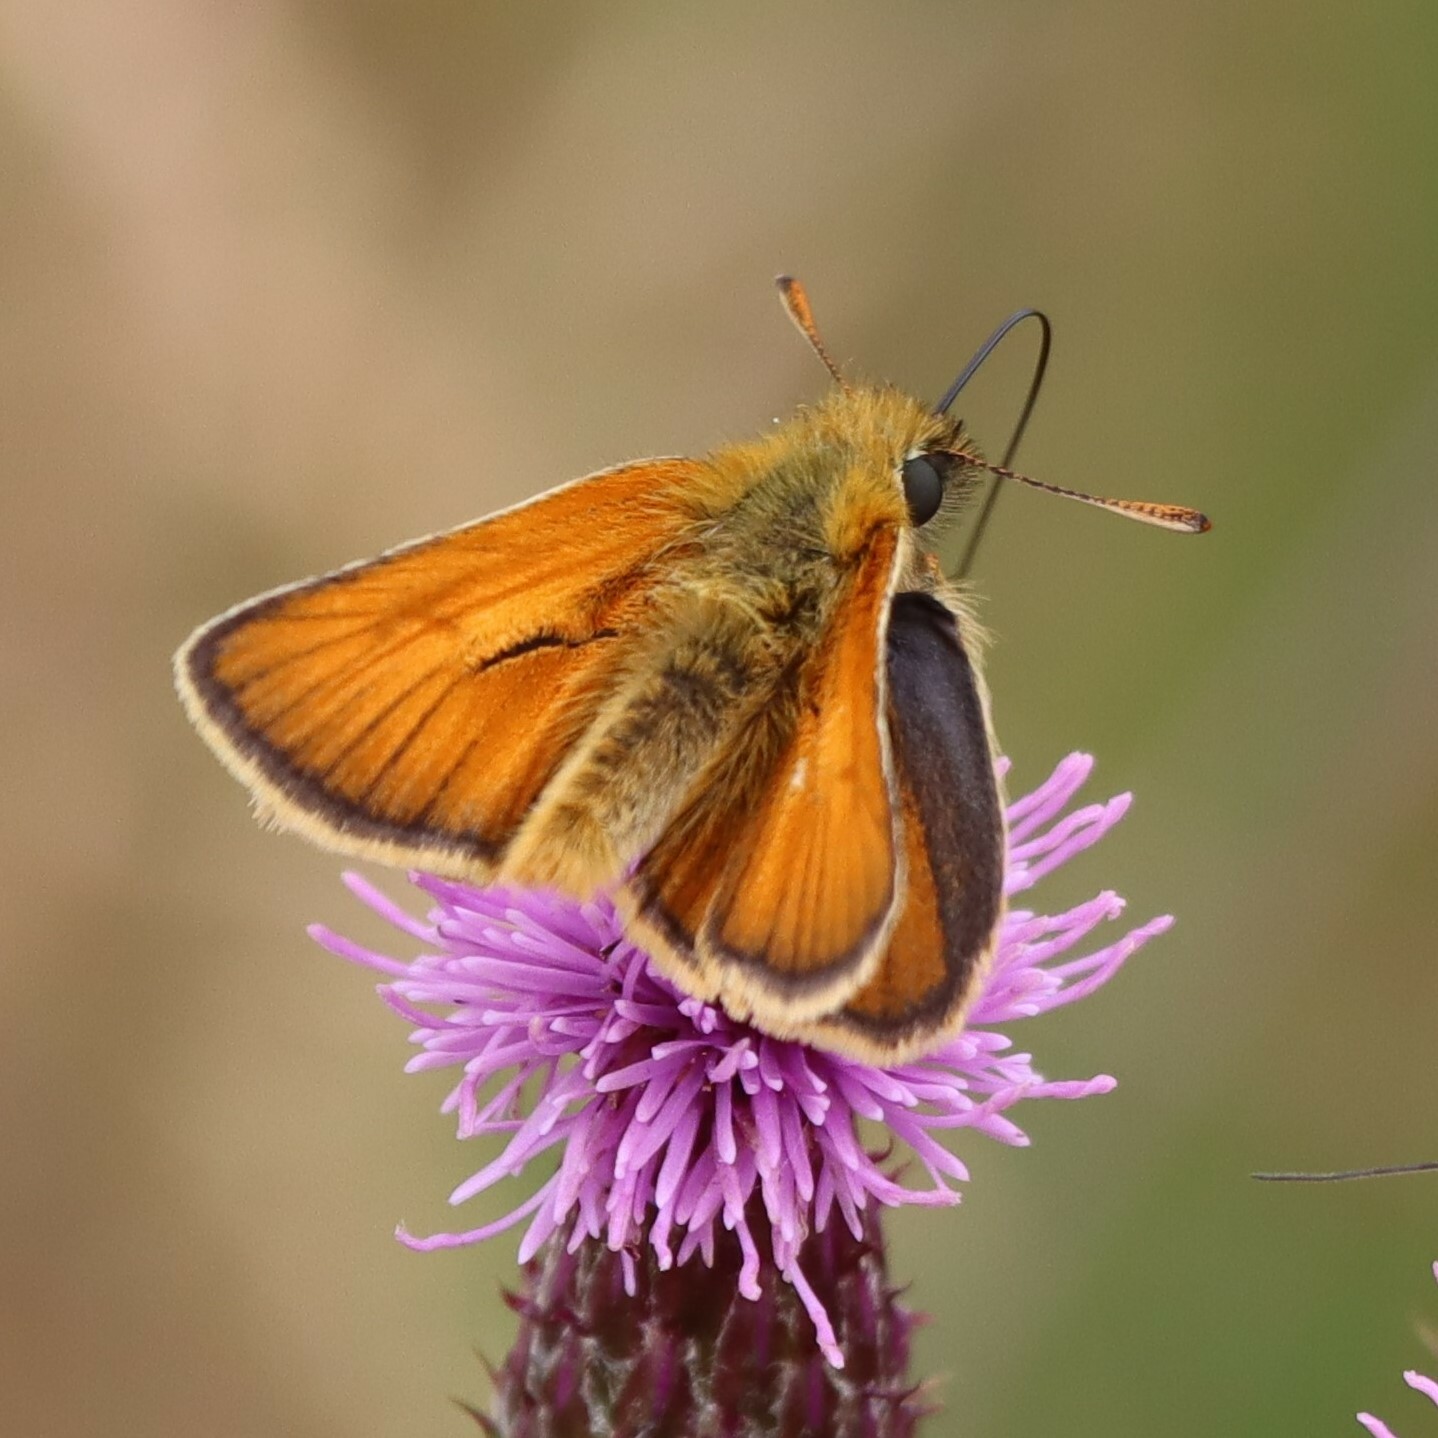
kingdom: Animalia
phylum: Arthropoda
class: Insecta
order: Lepidoptera
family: Hesperiidae
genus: Thymelicus
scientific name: Thymelicus sylvestris
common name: Small skipper
